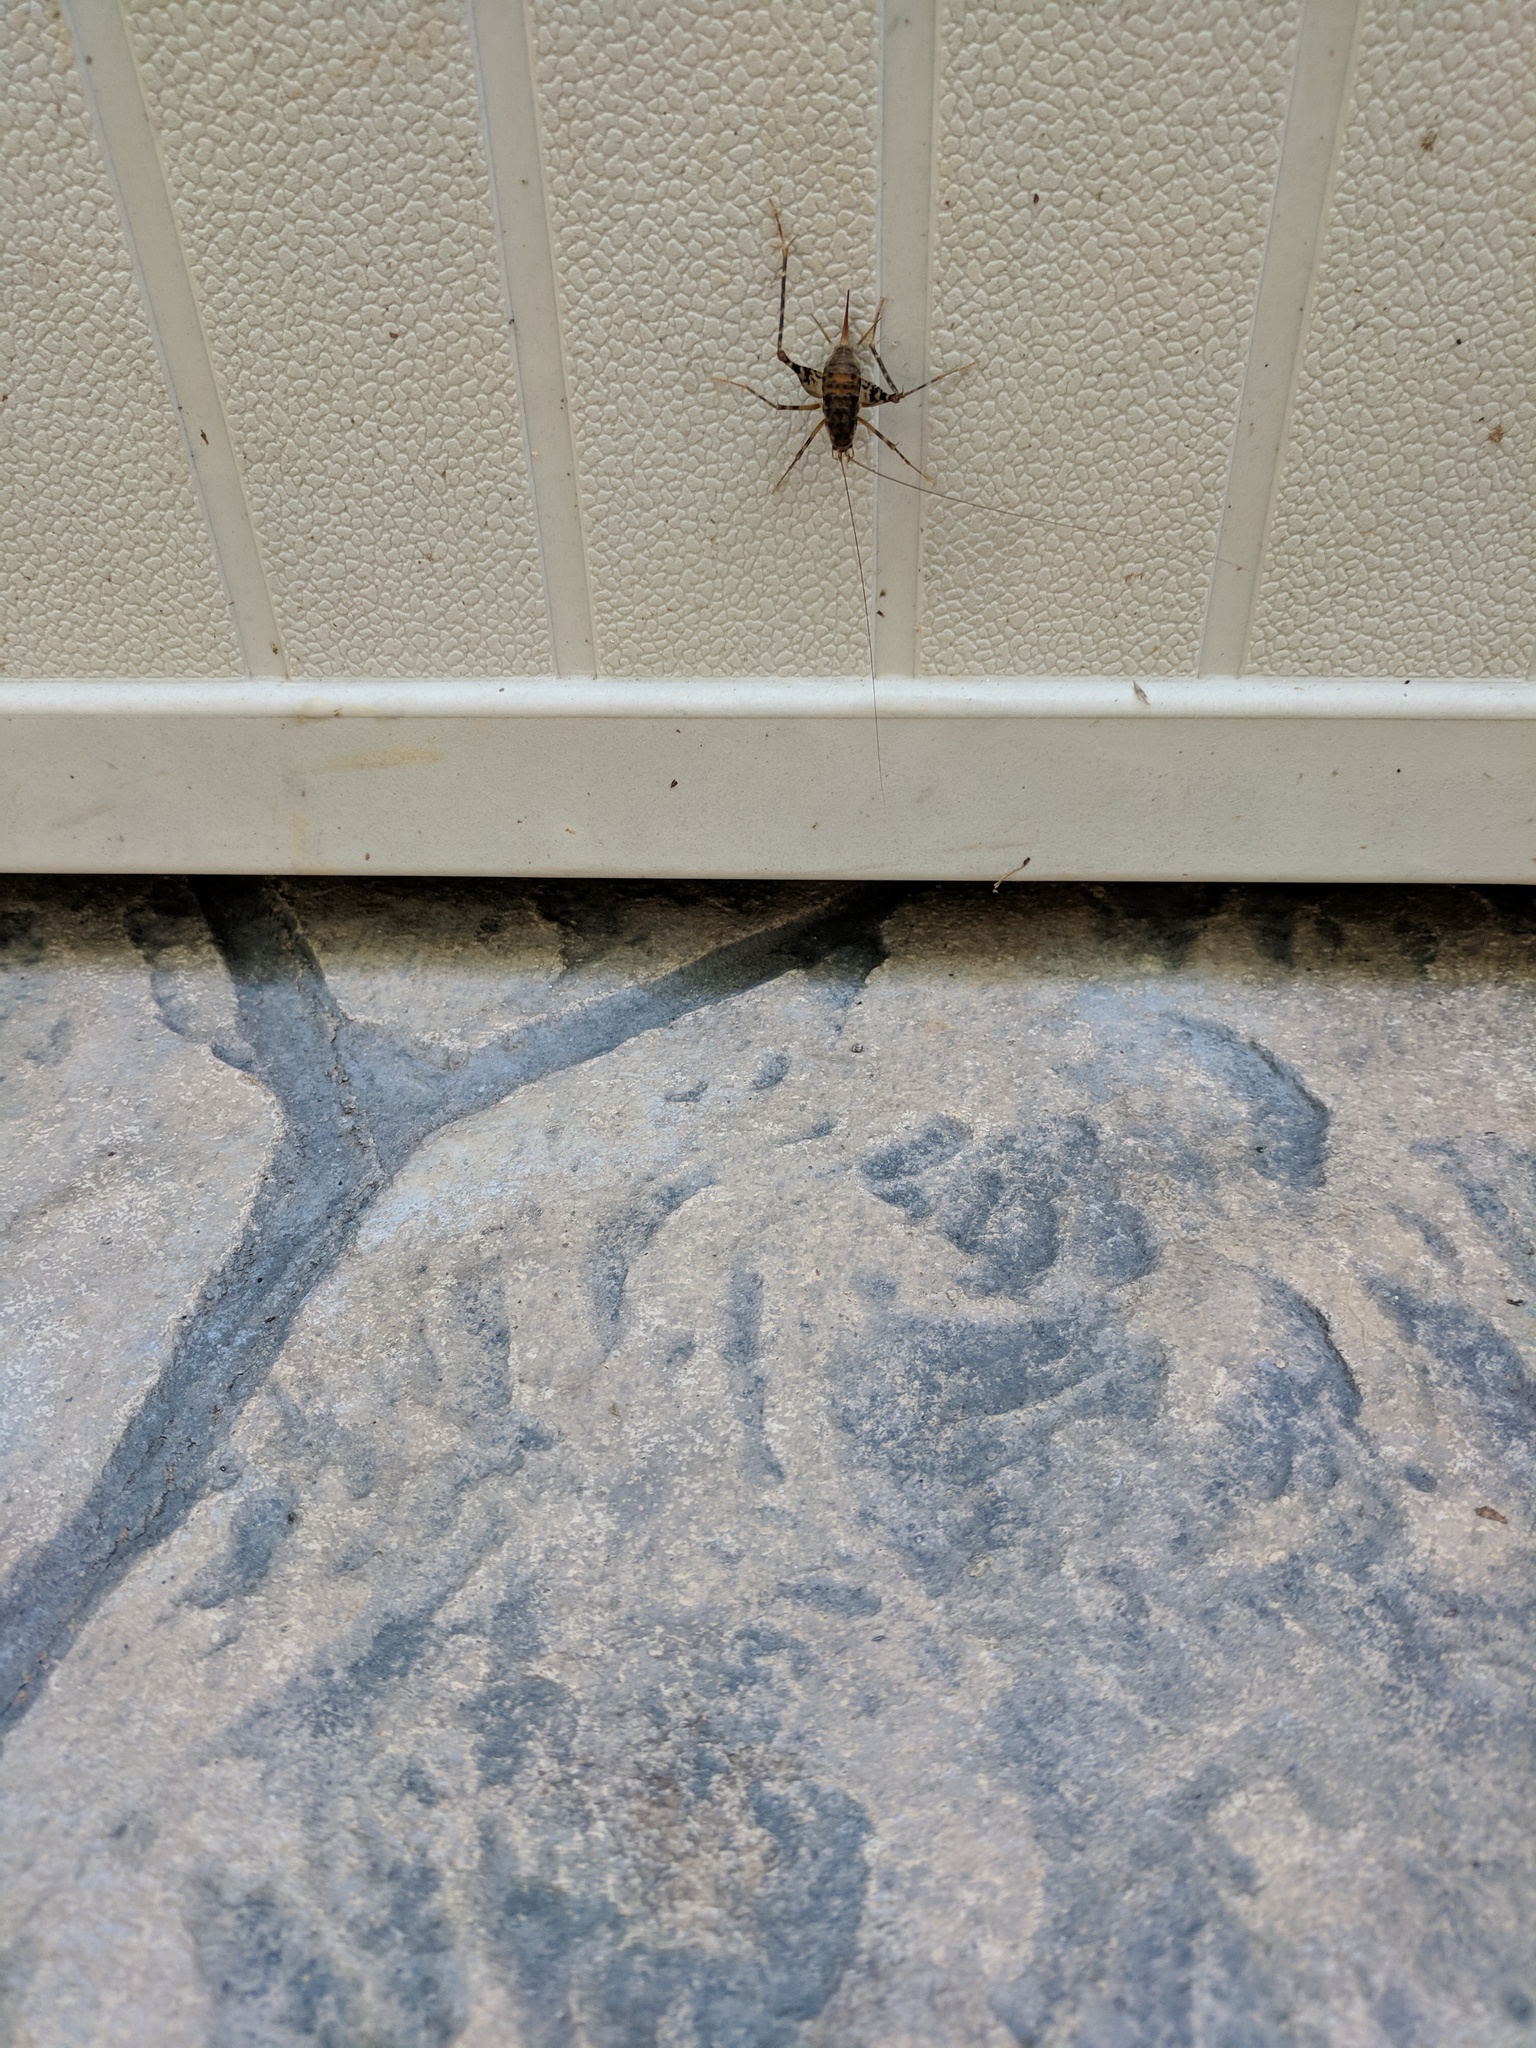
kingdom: Animalia
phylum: Arthropoda
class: Insecta
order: Orthoptera
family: Rhaphidophoridae
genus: Tachycines
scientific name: Tachycines asynamorus
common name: Greenhouse camel cricket
